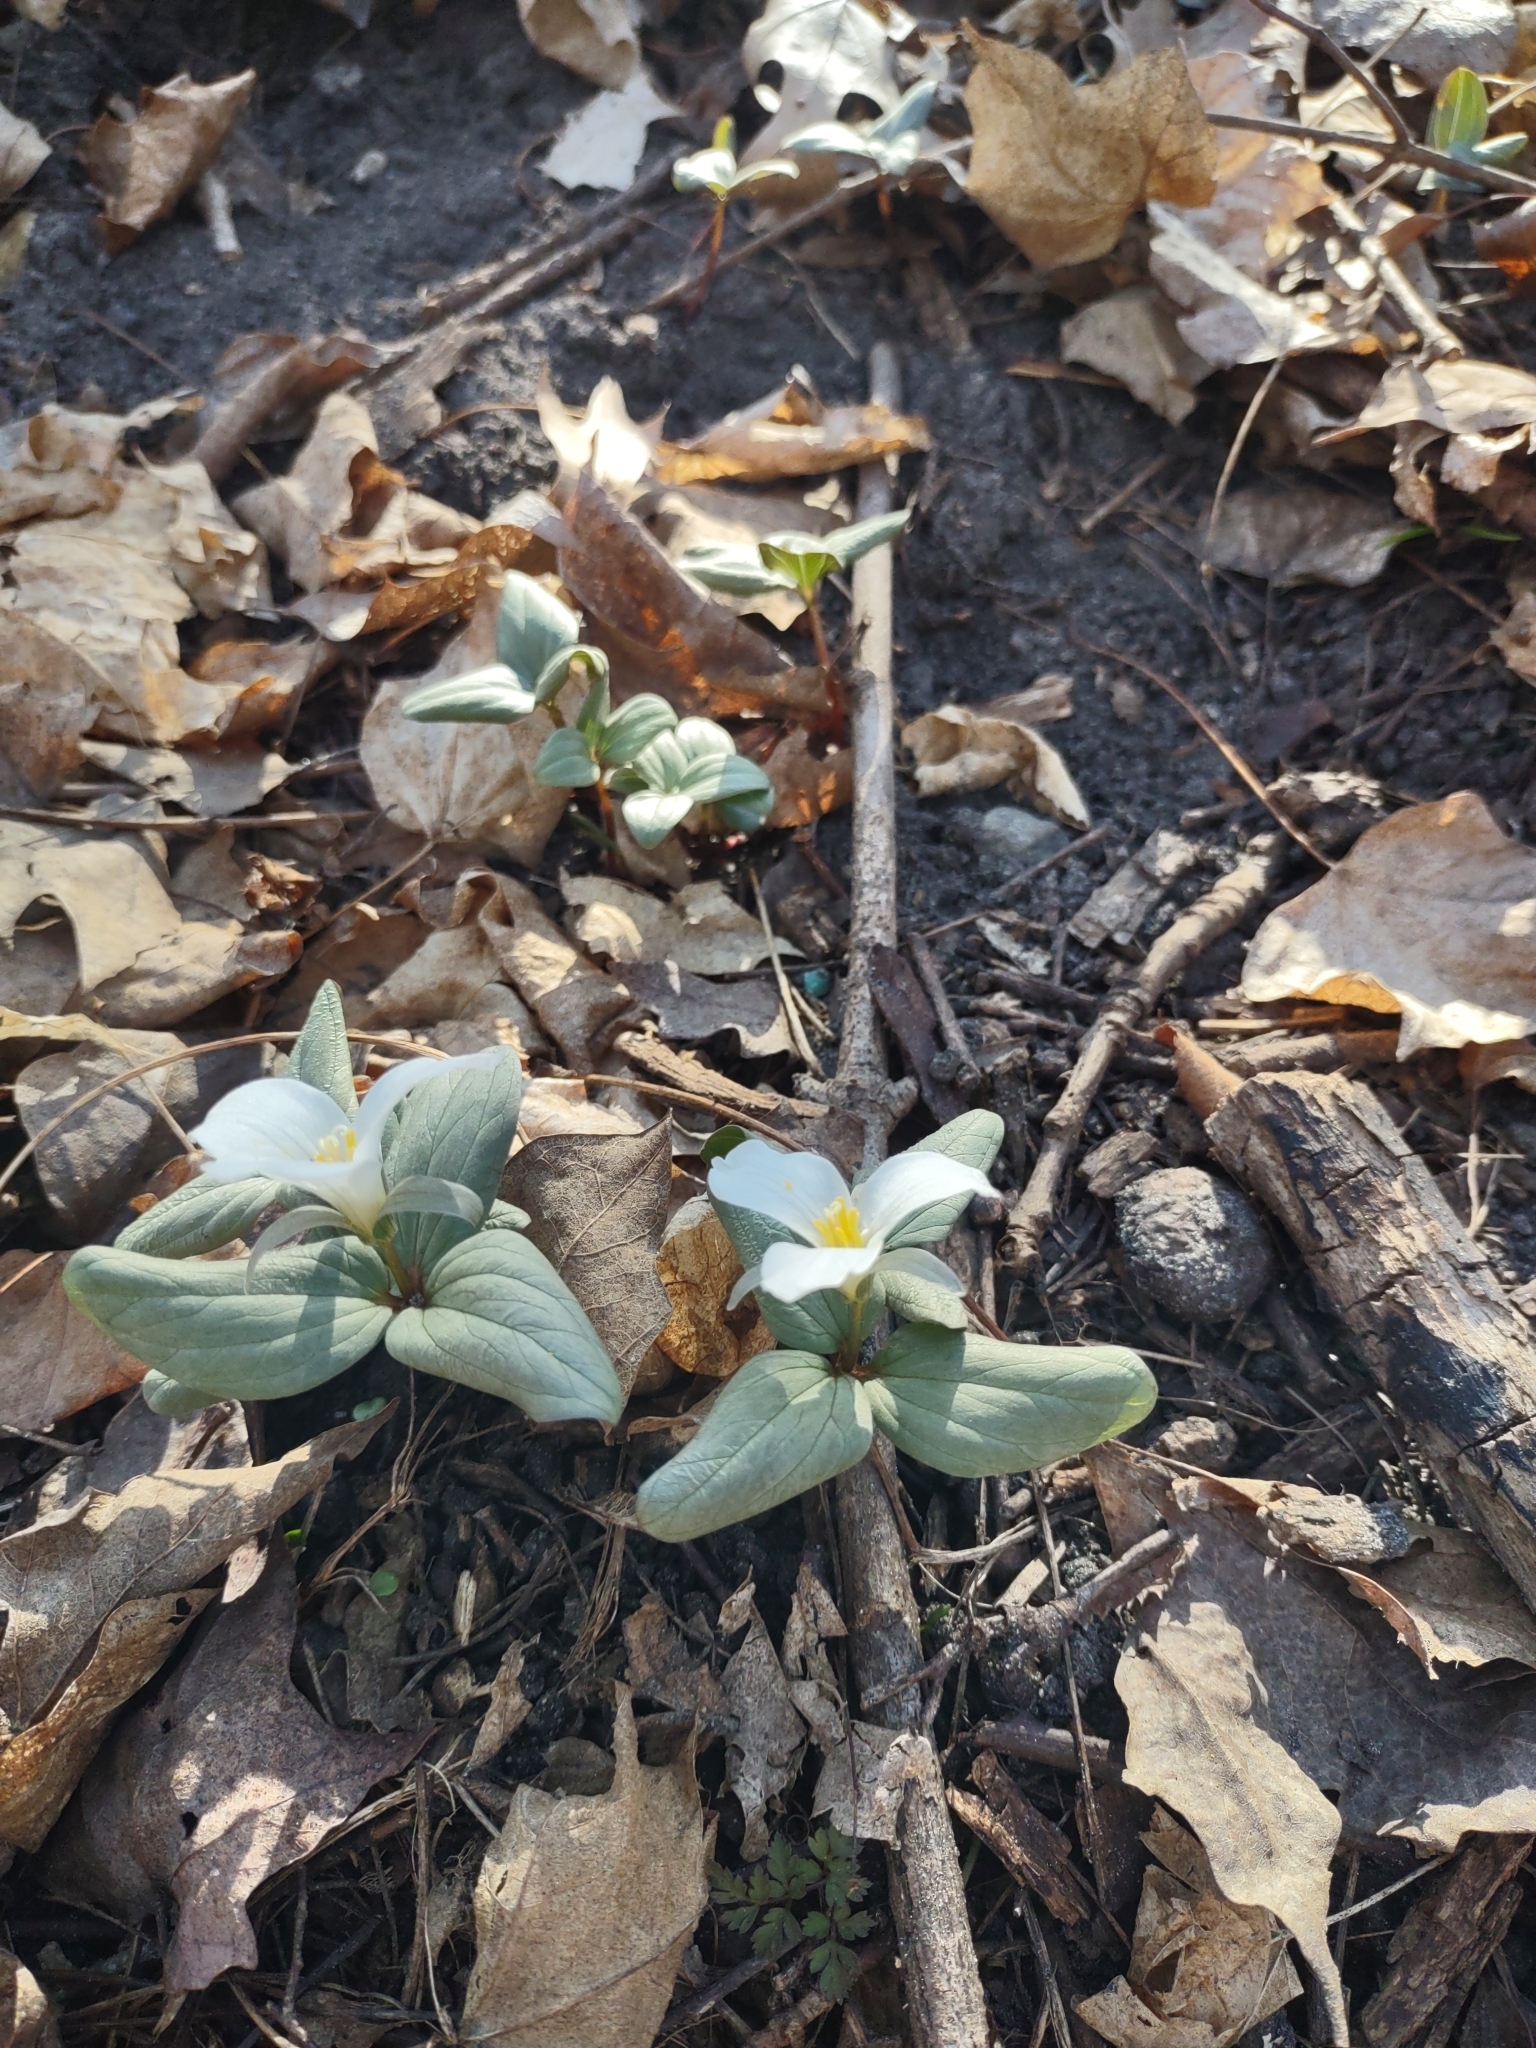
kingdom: Plantae
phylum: Tracheophyta
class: Liliopsida
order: Liliales
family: Melanthiaceae
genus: Trillium
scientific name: Trillium nivale
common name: Dwarf white trillium
